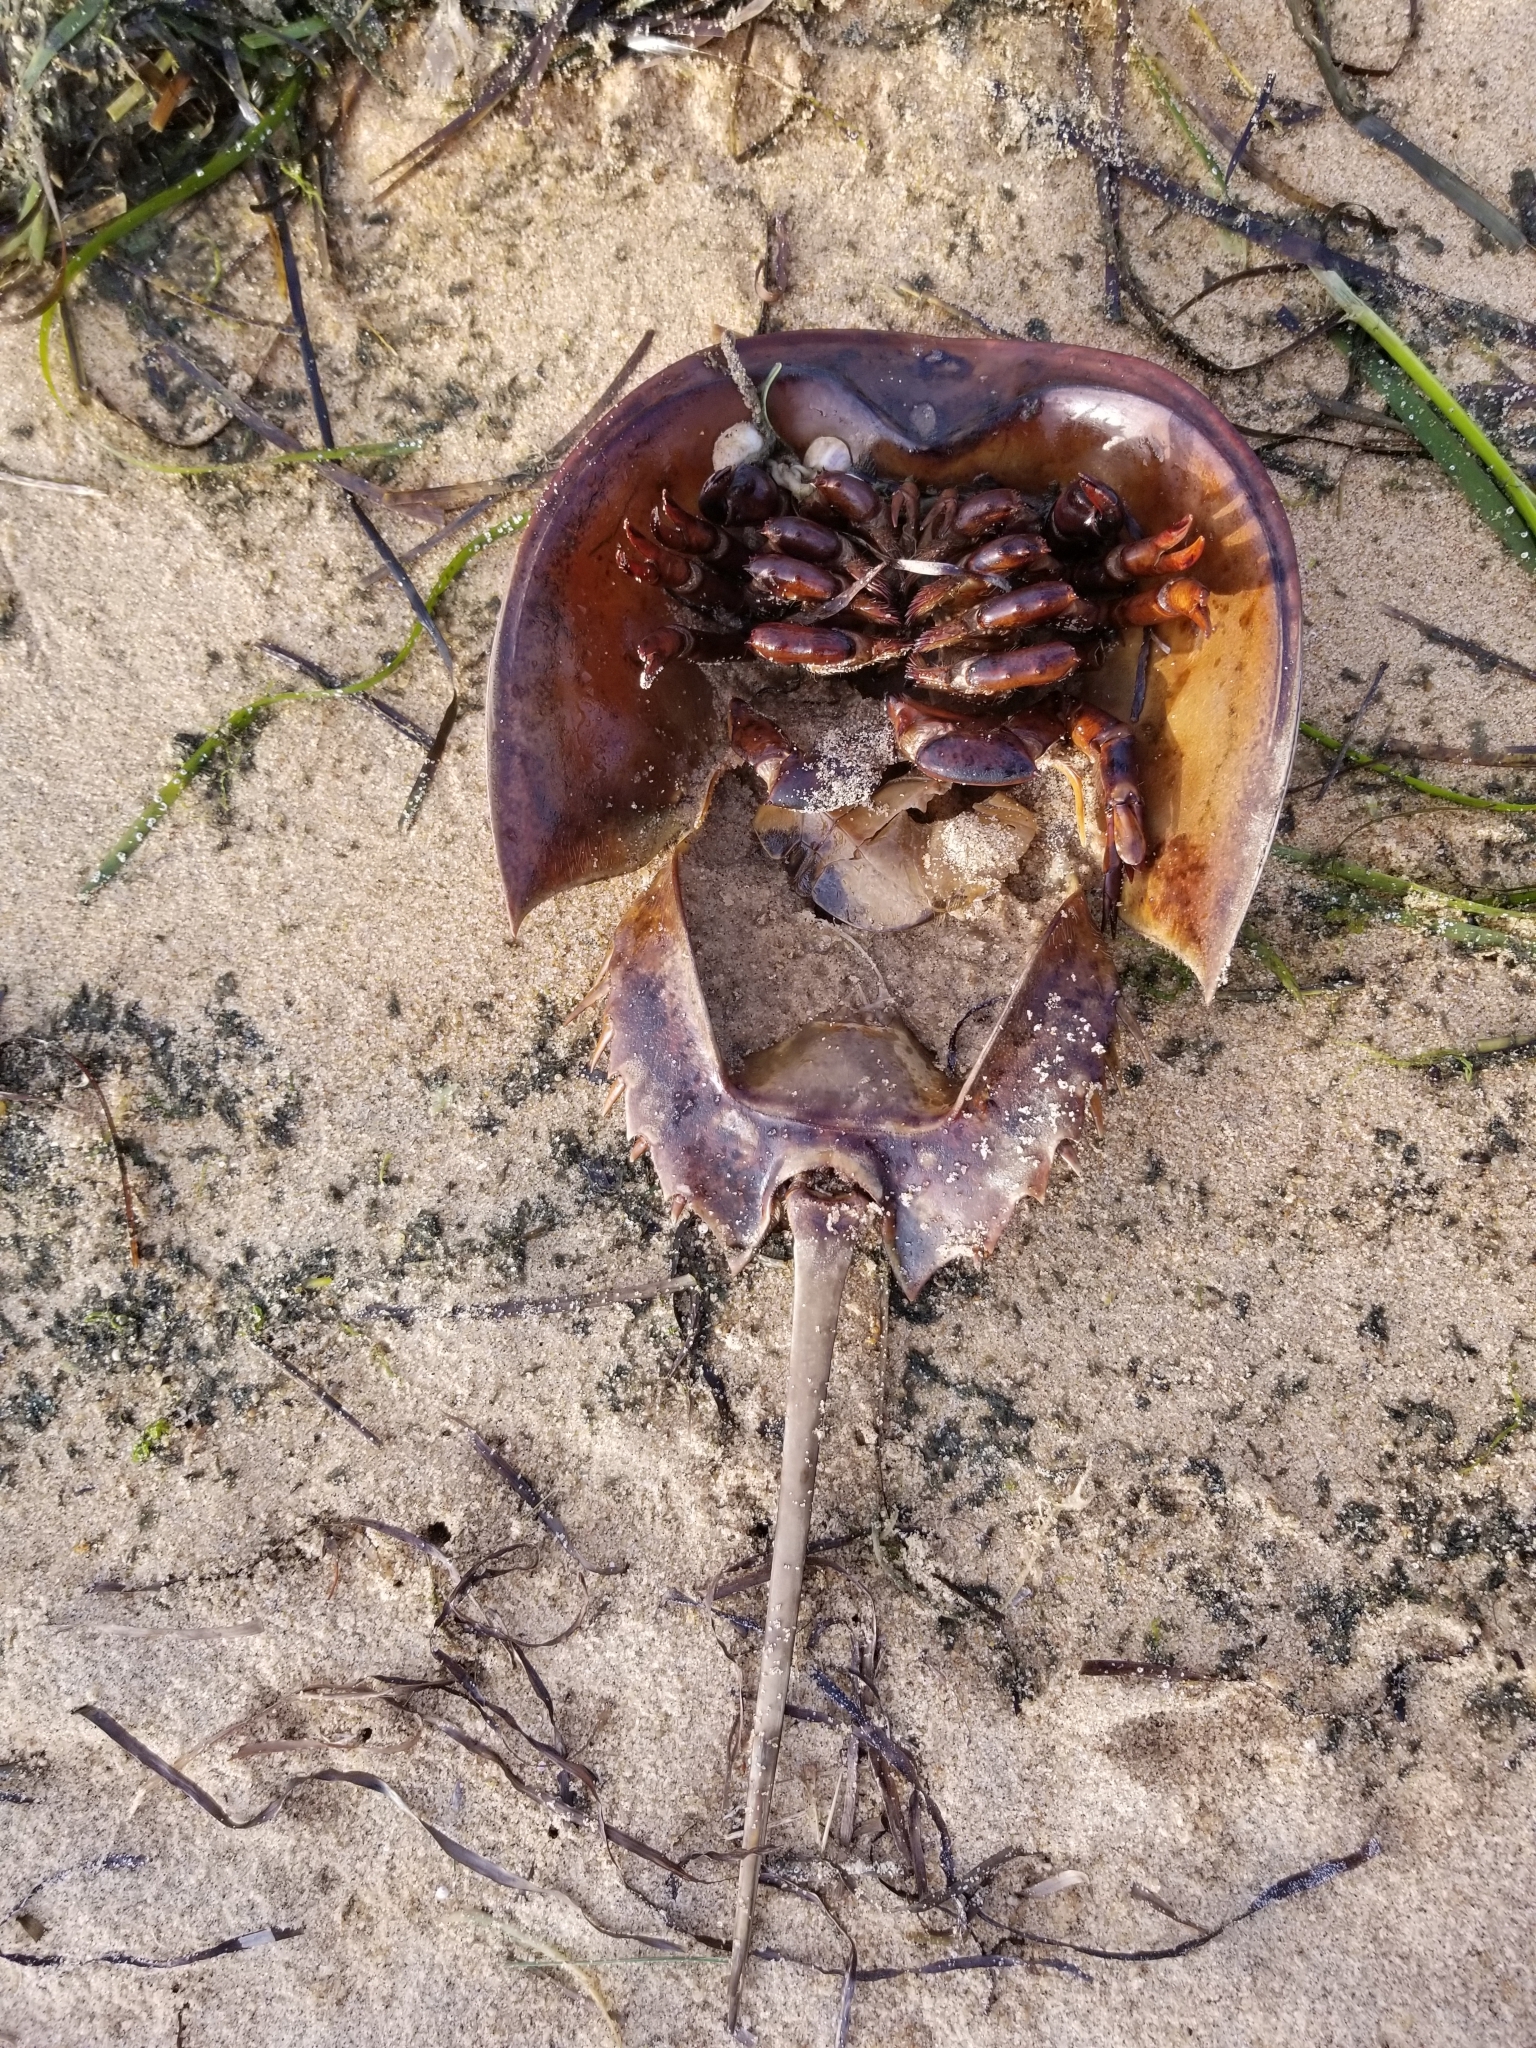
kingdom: Animalia
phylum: Arthropoda
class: Merostomata
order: Xiphosurida
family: Limulidae
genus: Limulus
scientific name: Limulus polyphemus
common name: Horseshoe crab
